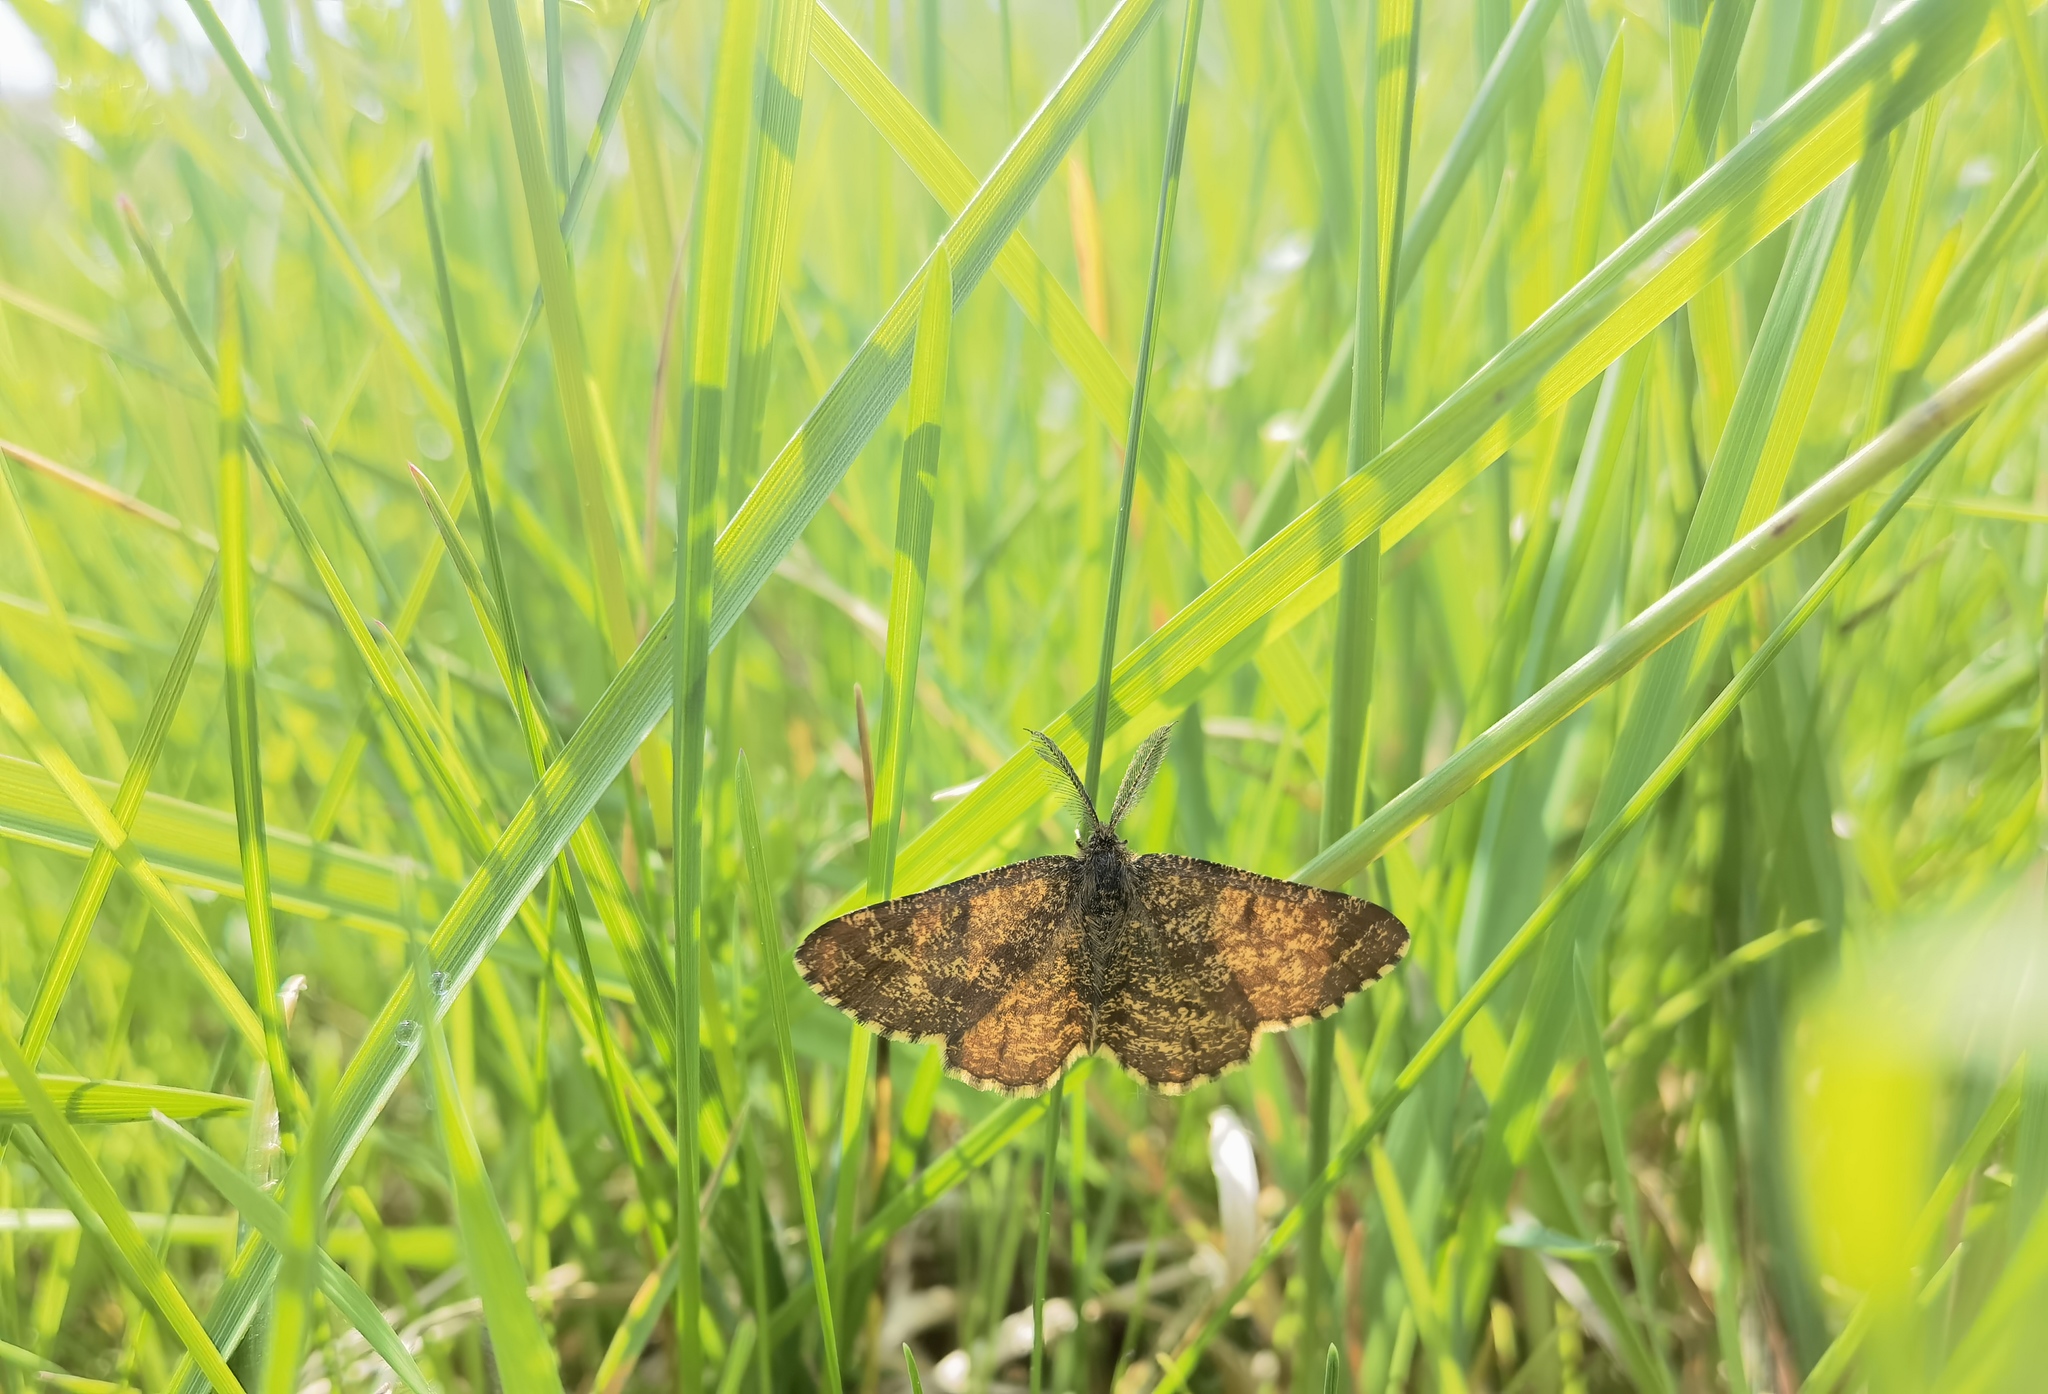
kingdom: Animalia
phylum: Arthropoda
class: Insecta
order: Lepidoptera
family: Geometridae
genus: Ematurga
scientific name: Ematurga atomaria
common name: Common heath
